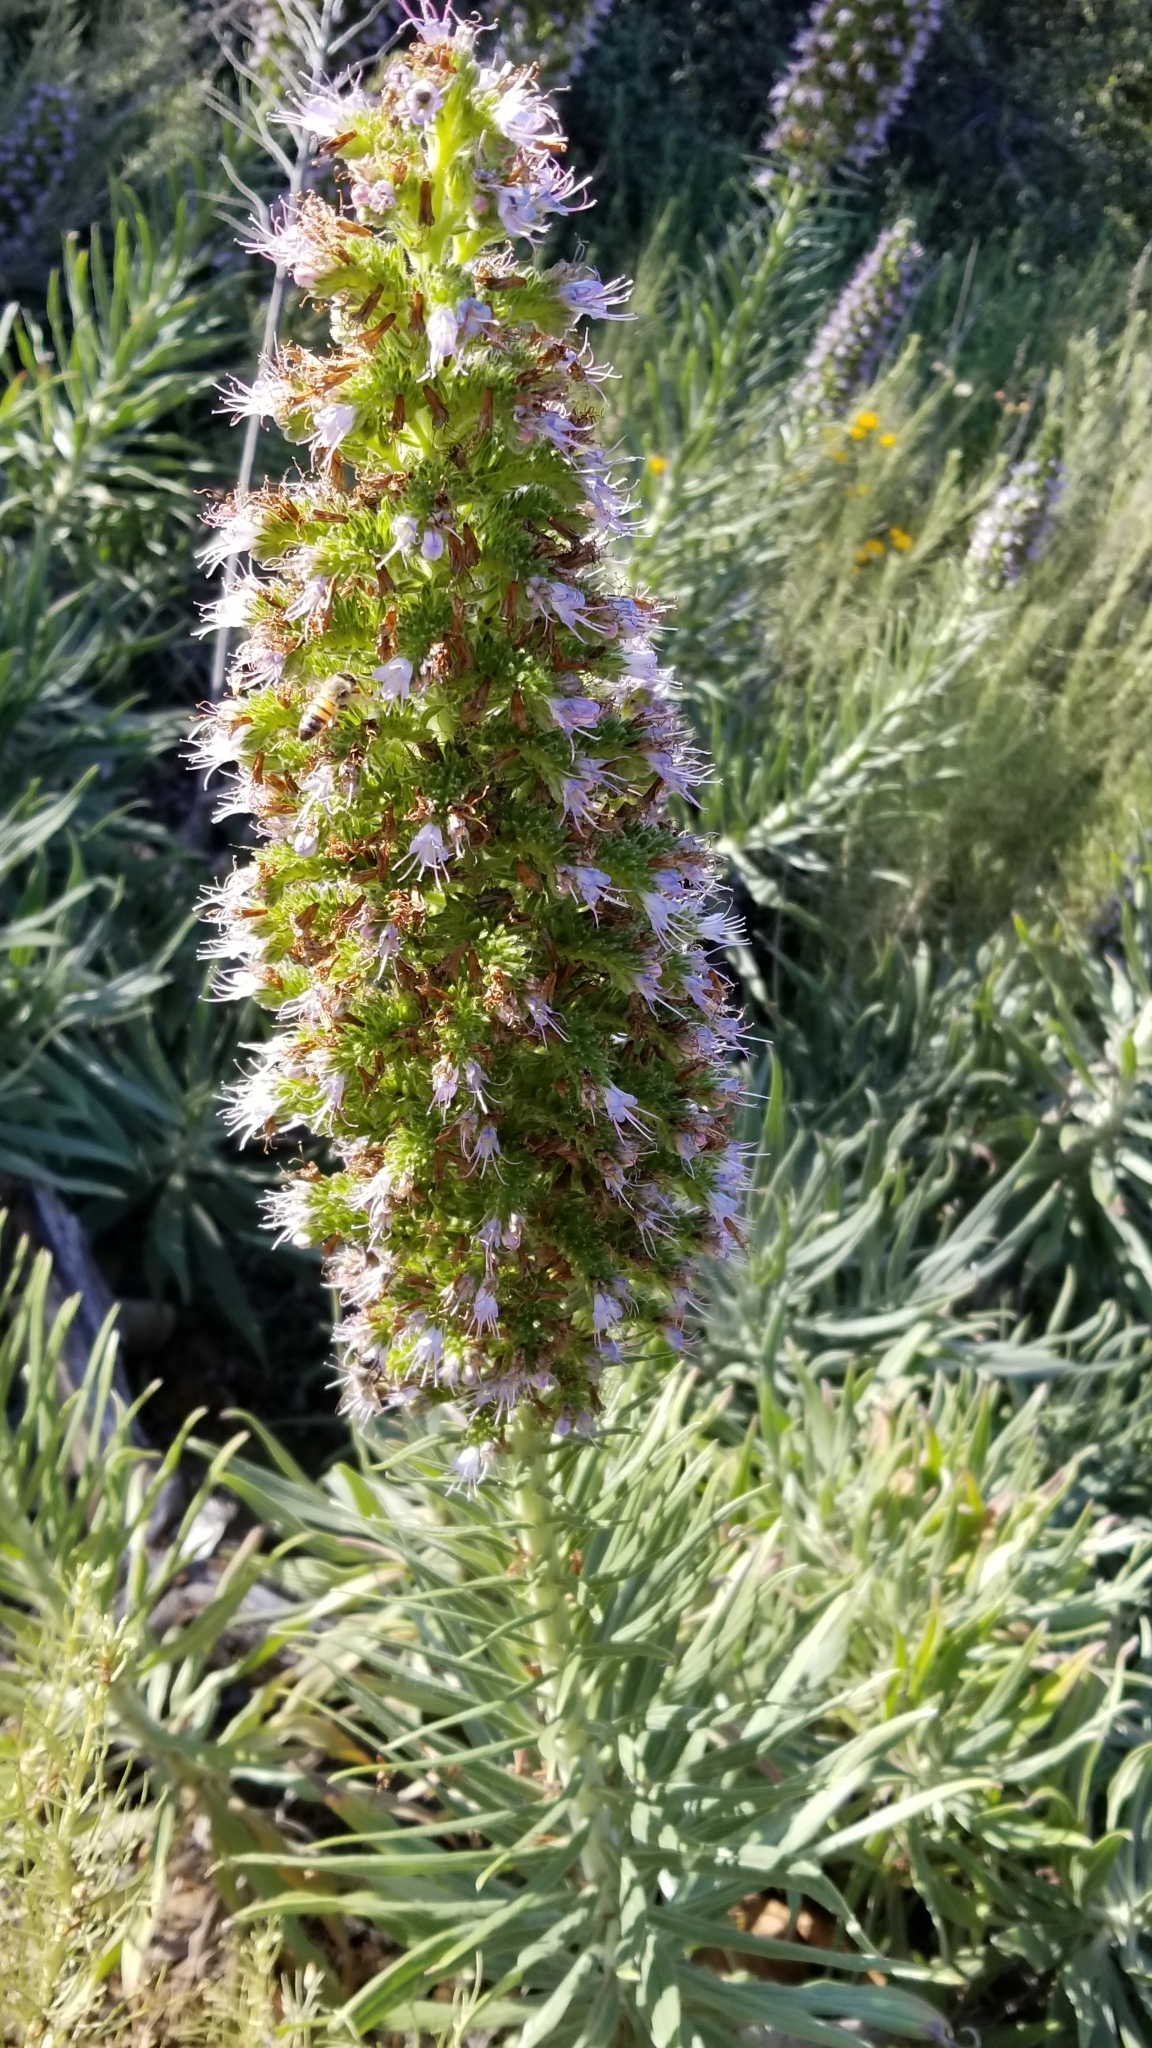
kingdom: Plantae
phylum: Tracheophyta
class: Magnoliopsida
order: Boraginales
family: Boraginaceae
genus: Echium
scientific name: Echium candicans
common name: Pride of madeira
